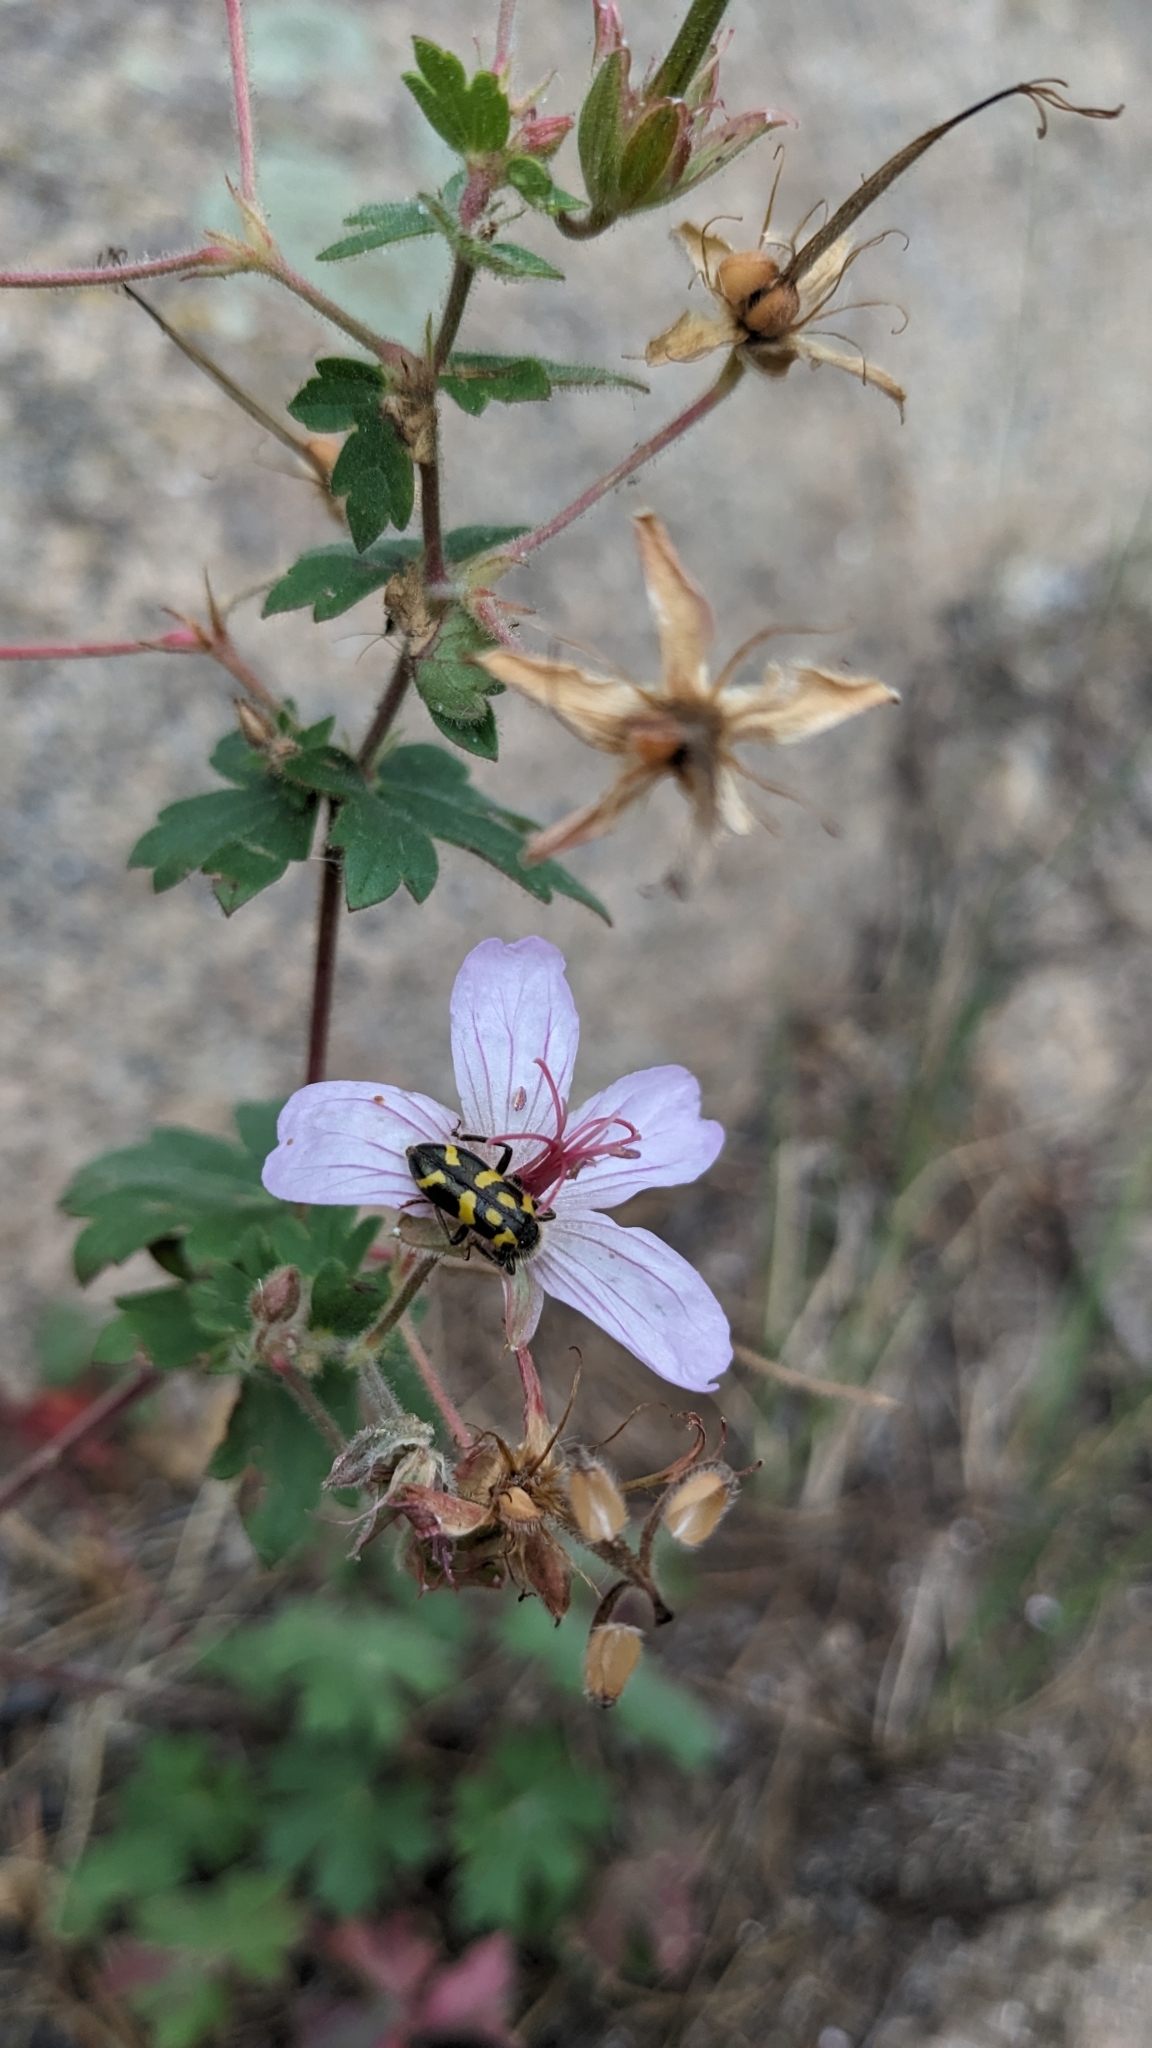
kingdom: Animalia
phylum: Arthropoda
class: Insecta
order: Coleoptera
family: Cleridae
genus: Trichodes
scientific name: Trichodes ornatus
